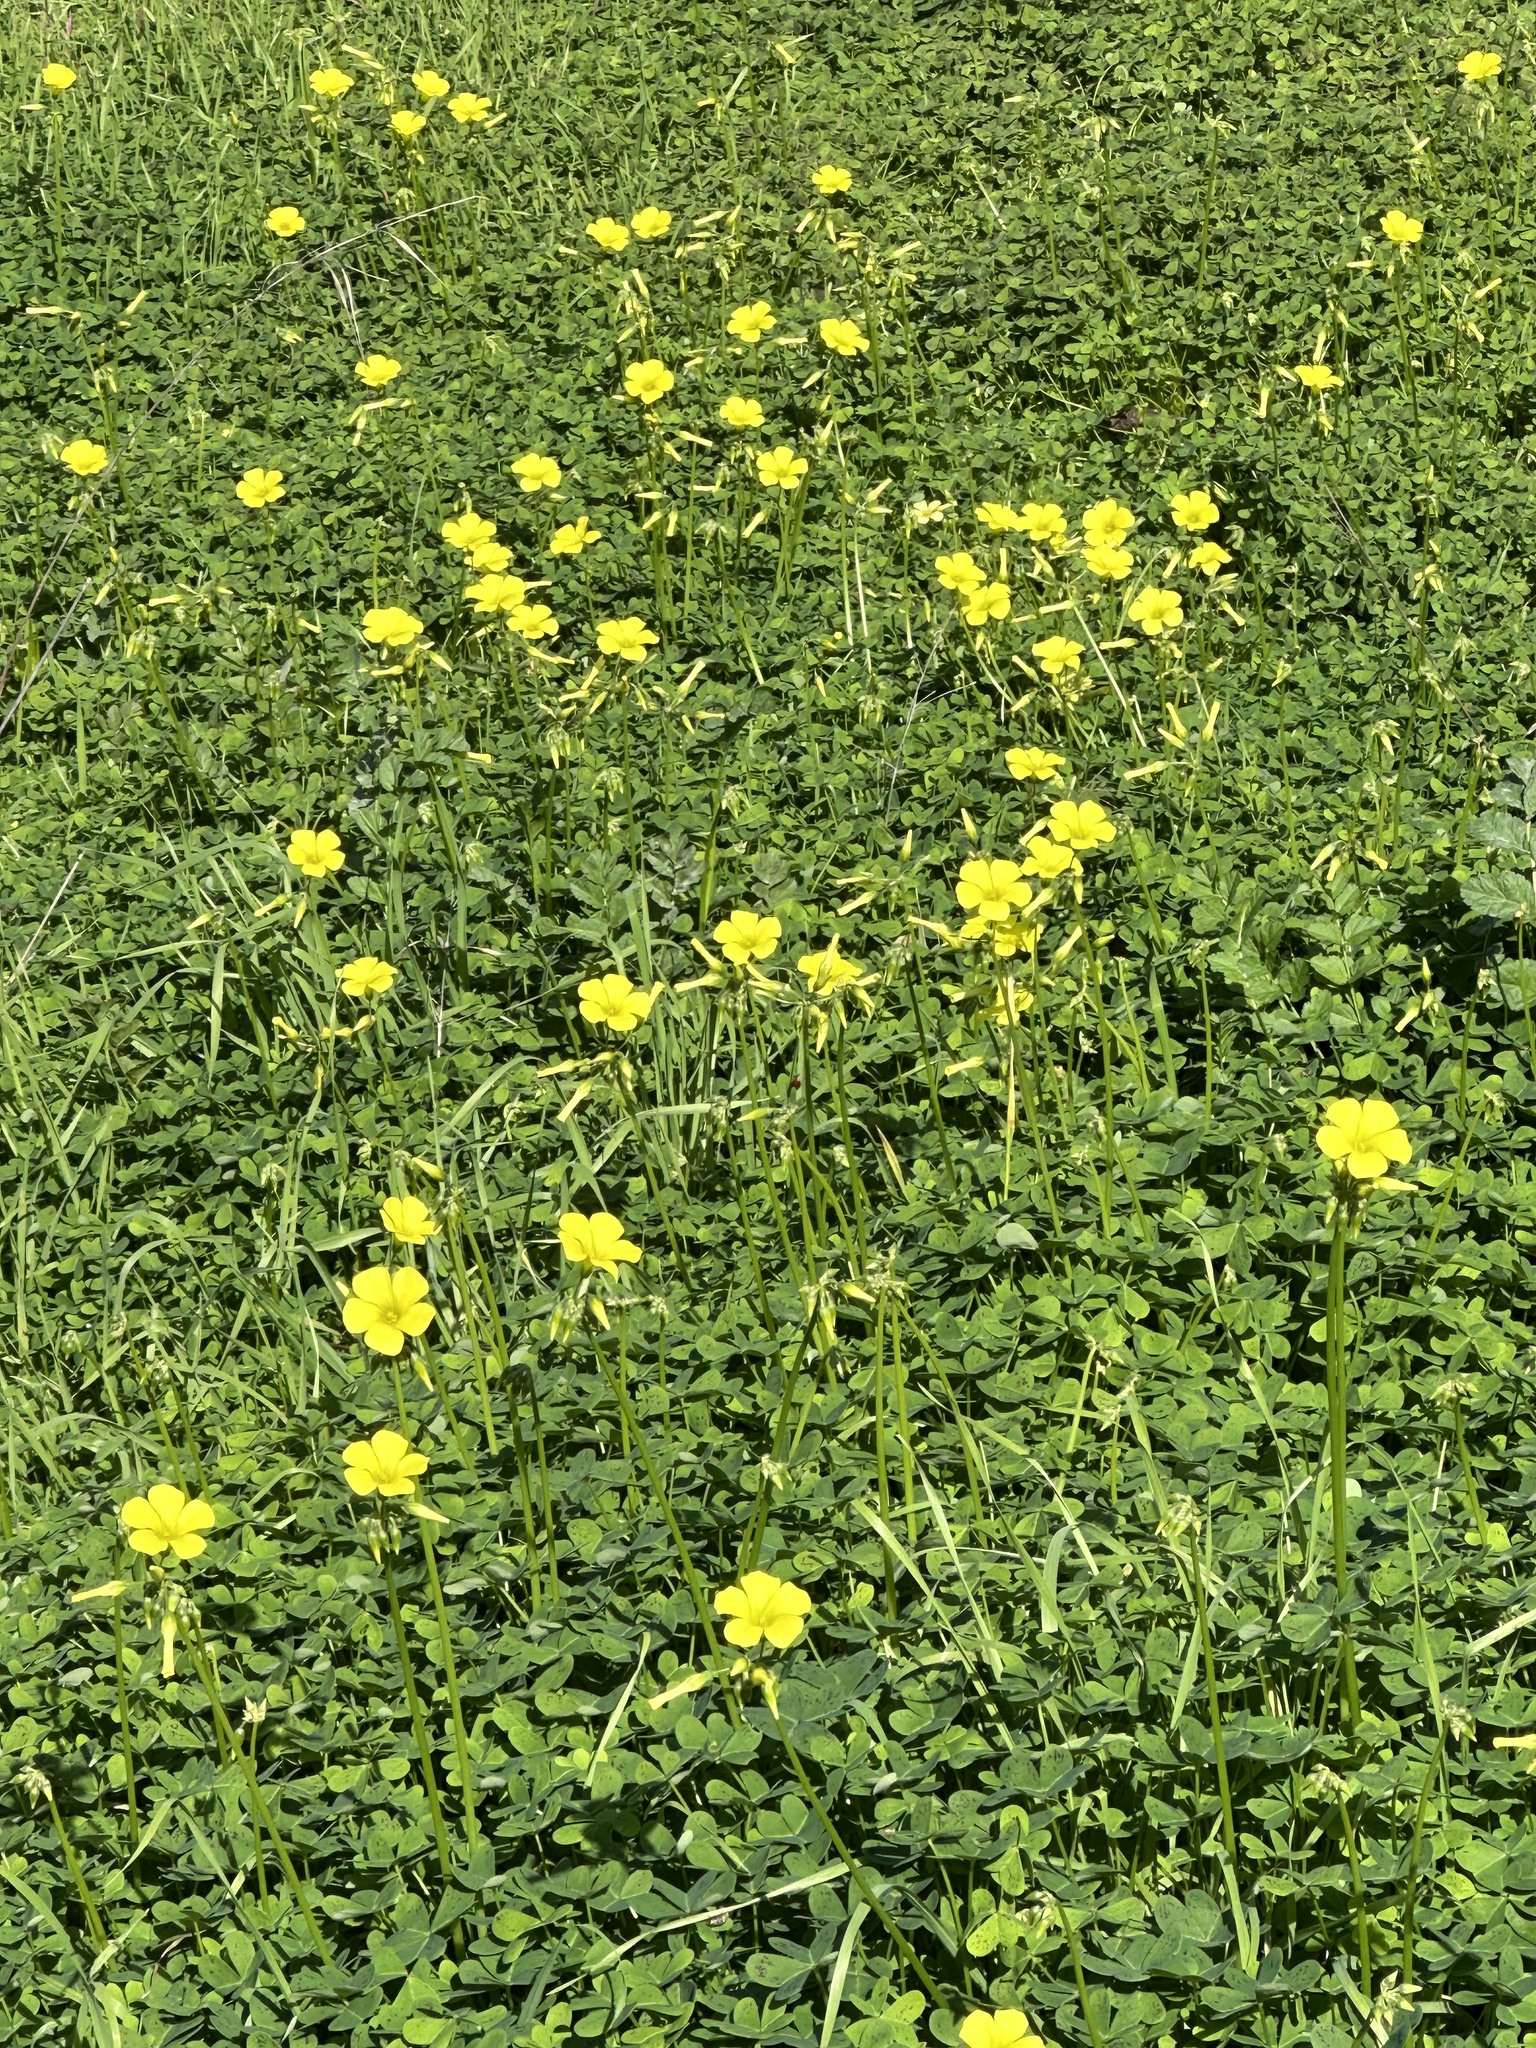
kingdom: Plantae
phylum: Tracheophyta
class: Magnoliopsida
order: Oxalidales
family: Oxalidaceae
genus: Oxalis
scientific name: Oxalis pes-caprae
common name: Bermuda-buttercup
